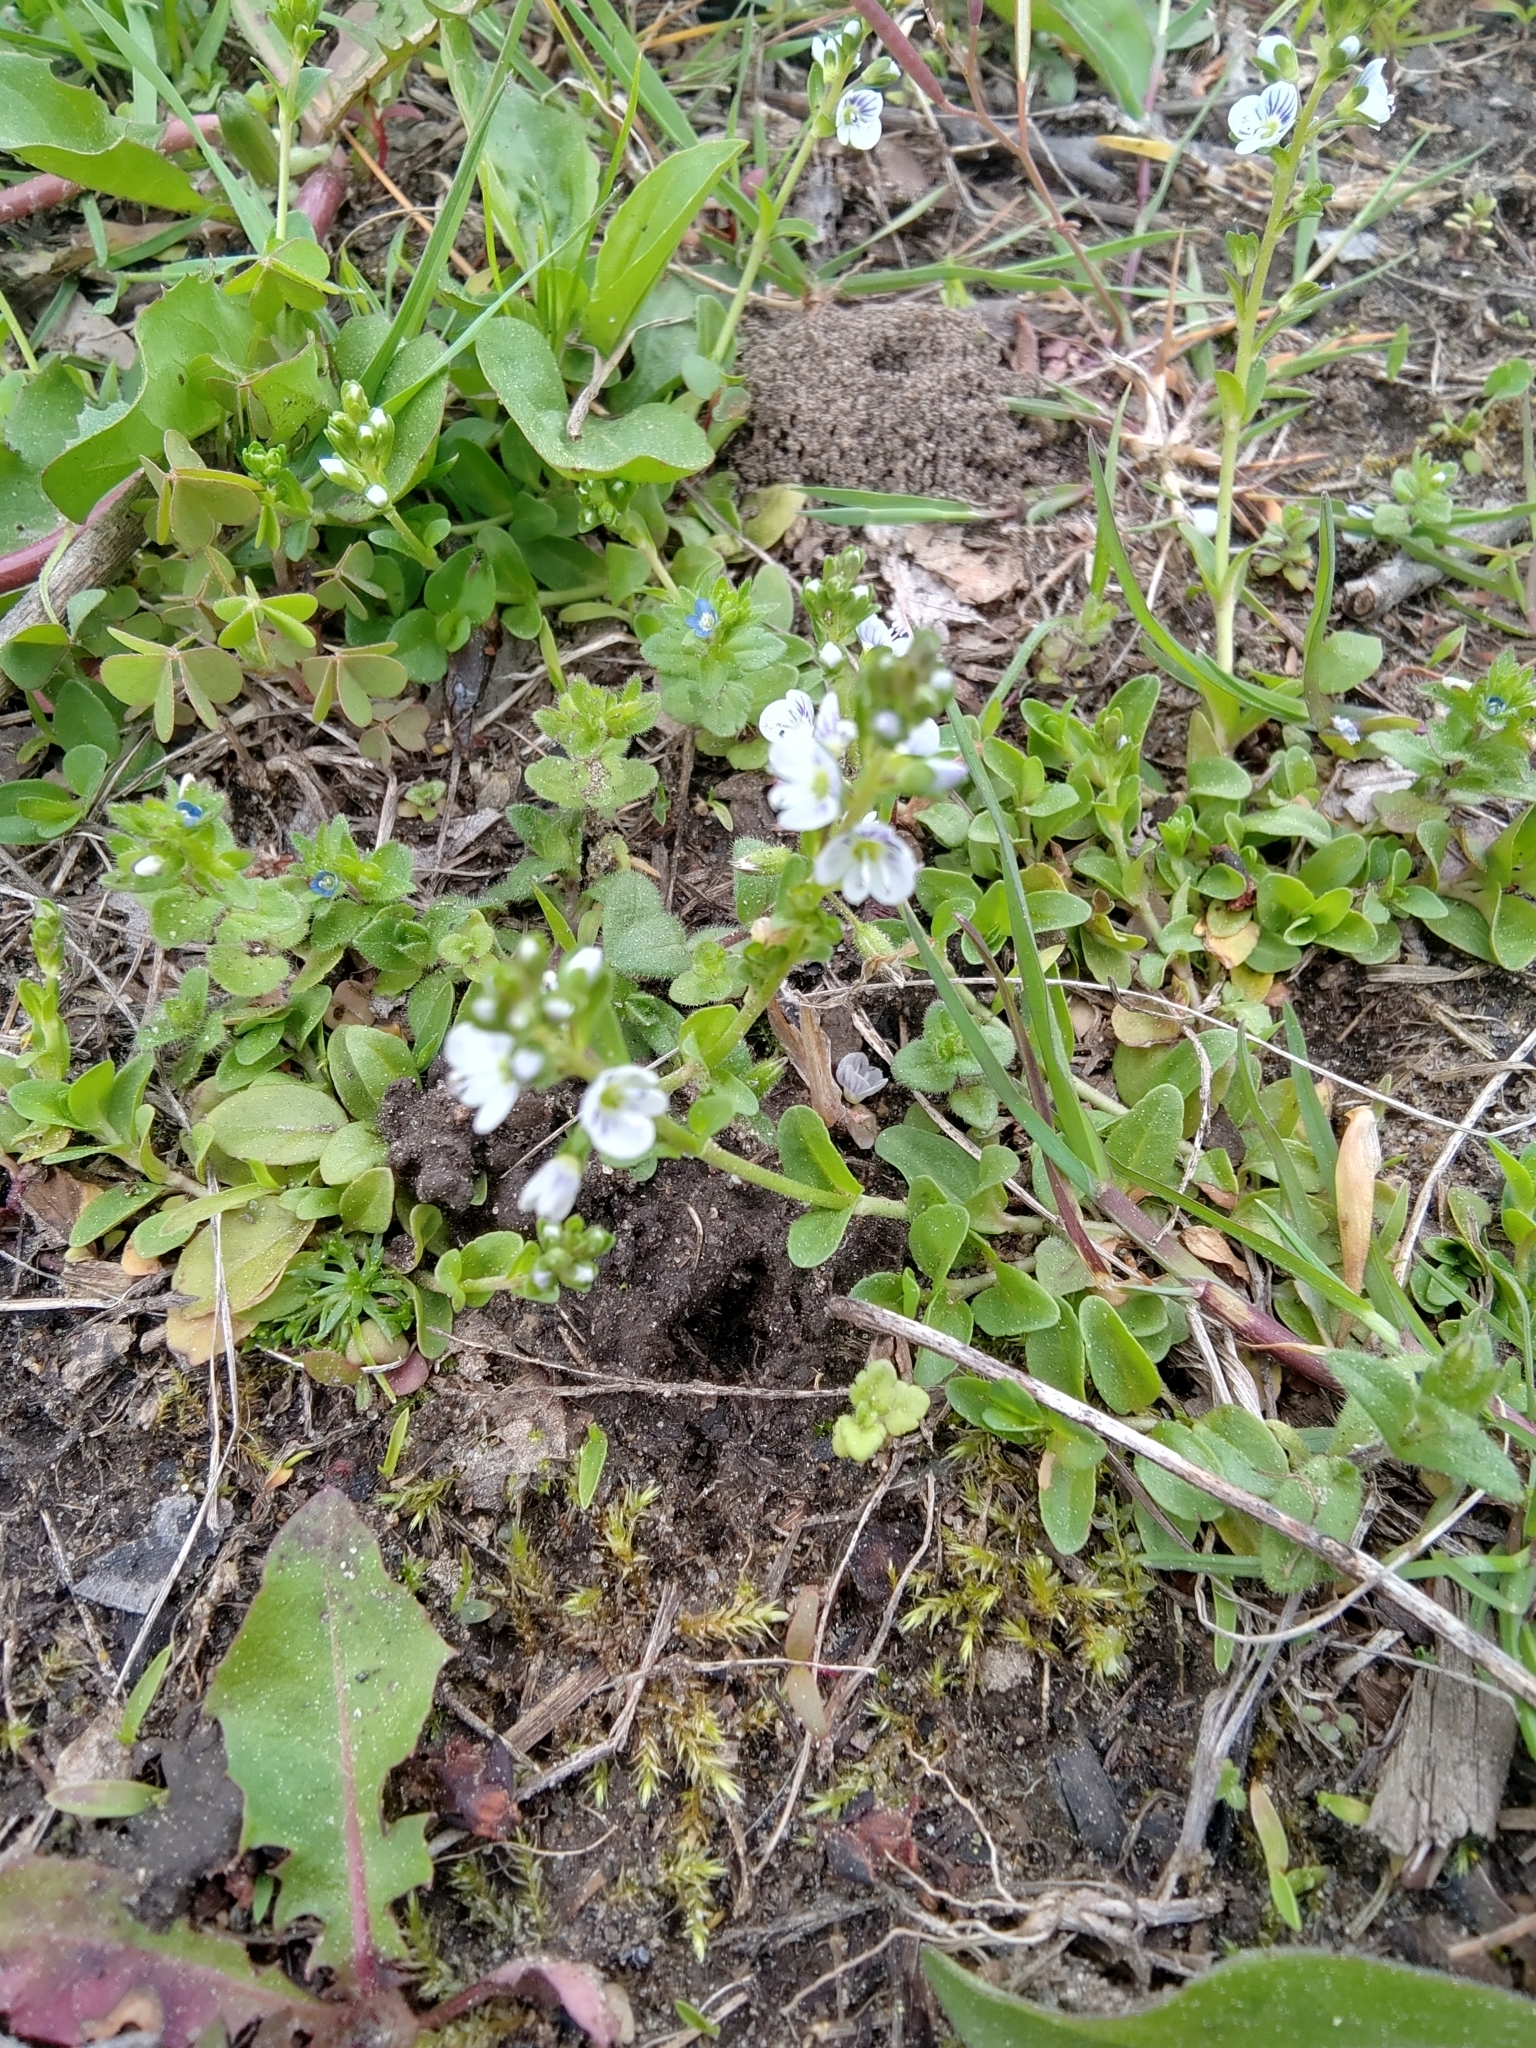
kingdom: Plantae
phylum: Tracheophyta
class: Magnoliopsida
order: Lamiales
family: Plantaginaceae
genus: Veronica
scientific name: Veronica serpyllifolia
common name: Thyme-leaved speedwell
